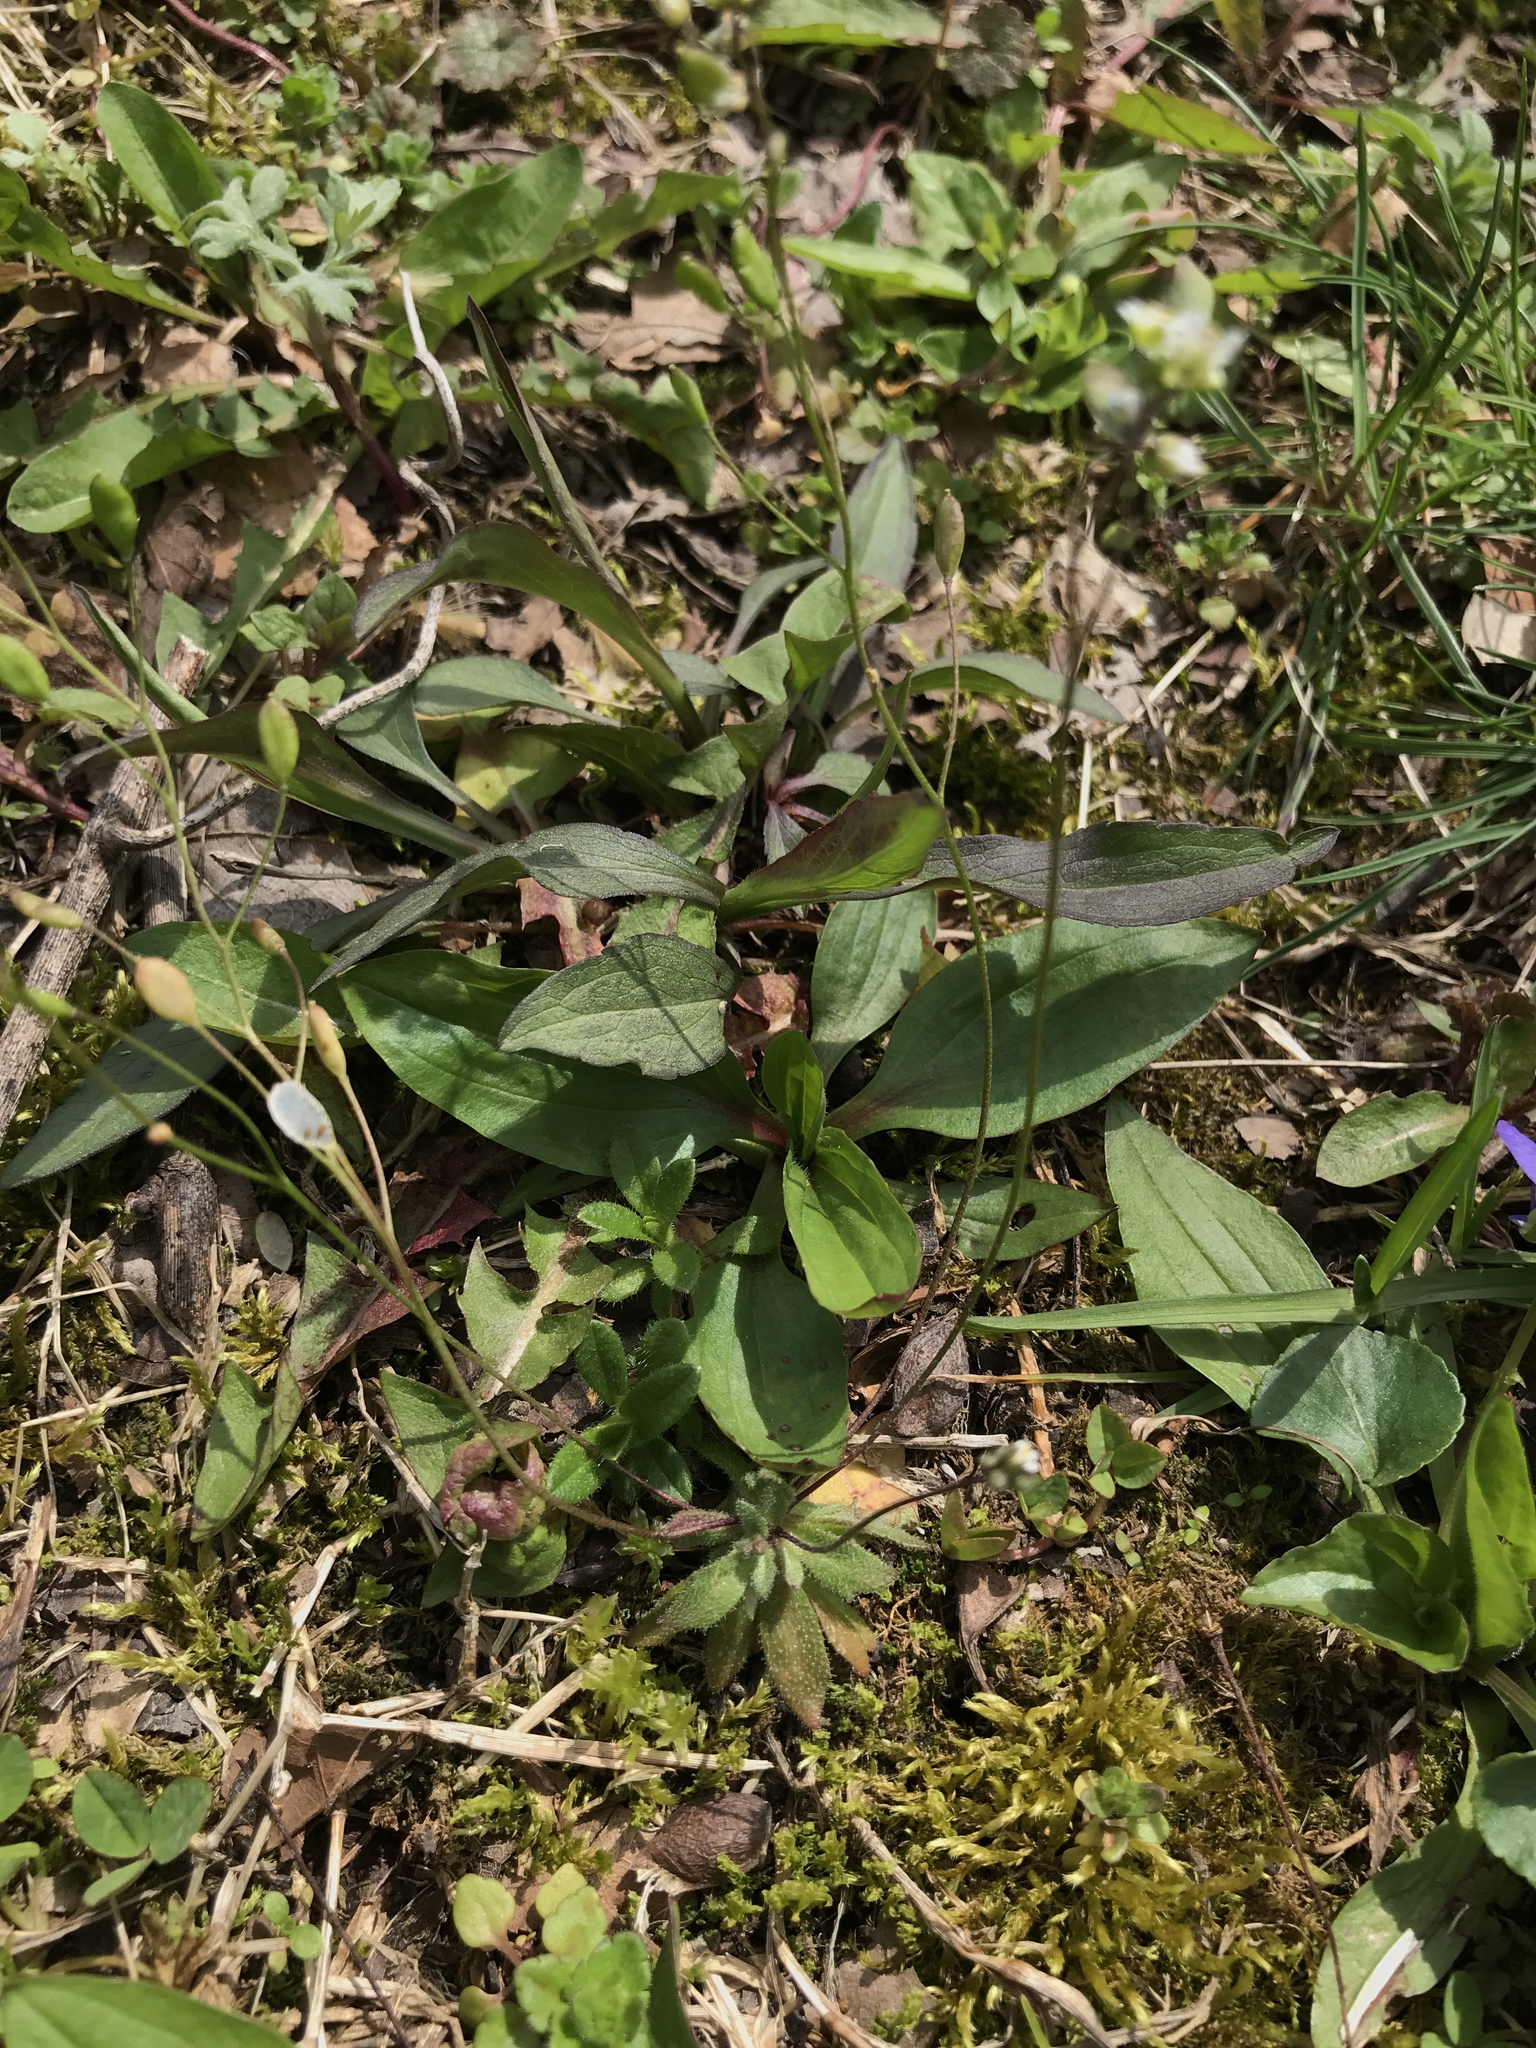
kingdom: Plantae
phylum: Tracheophyta
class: Magnoliopsida
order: Brassicales
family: Brassicaceae
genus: Draba
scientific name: Draba verna
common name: Spring draba
